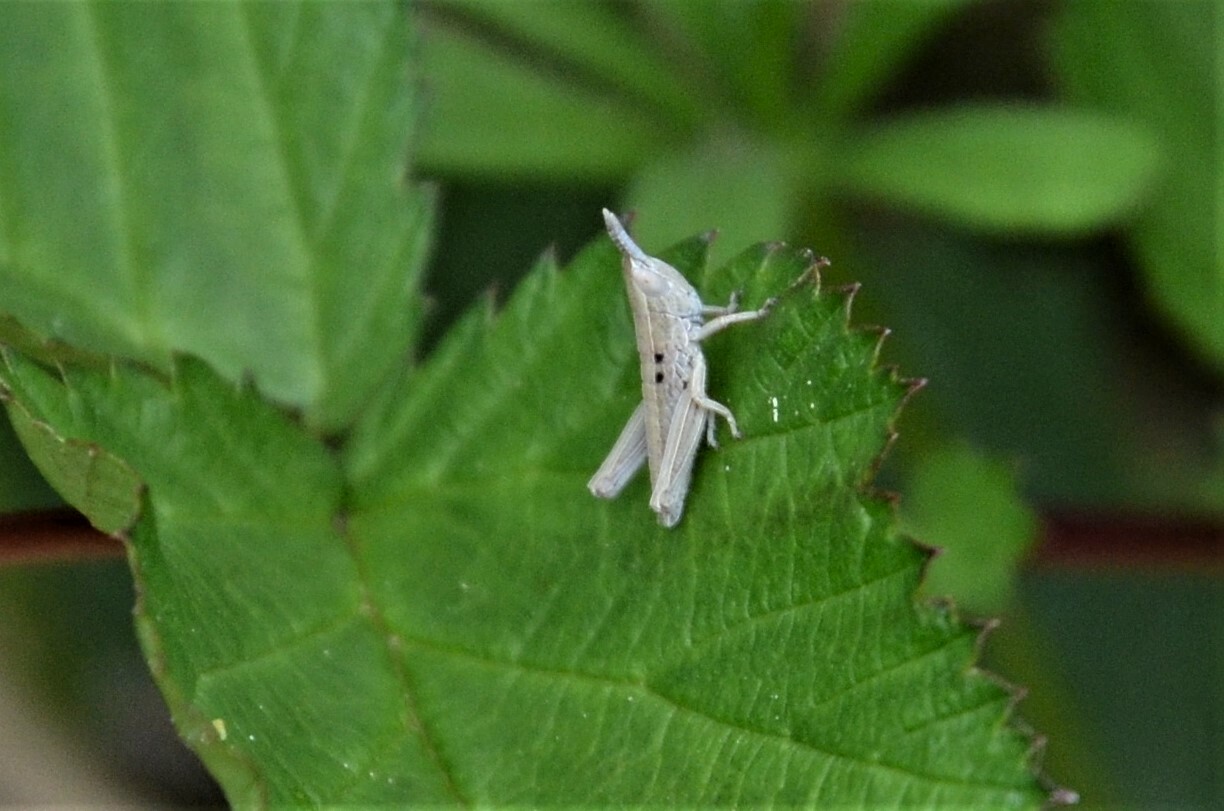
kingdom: Animalia
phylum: Arthropoda
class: Insecta
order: Orthoptera
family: Acrididae
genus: Euthystira
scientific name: Euthystira brachyptera
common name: Small gold grasshopper
